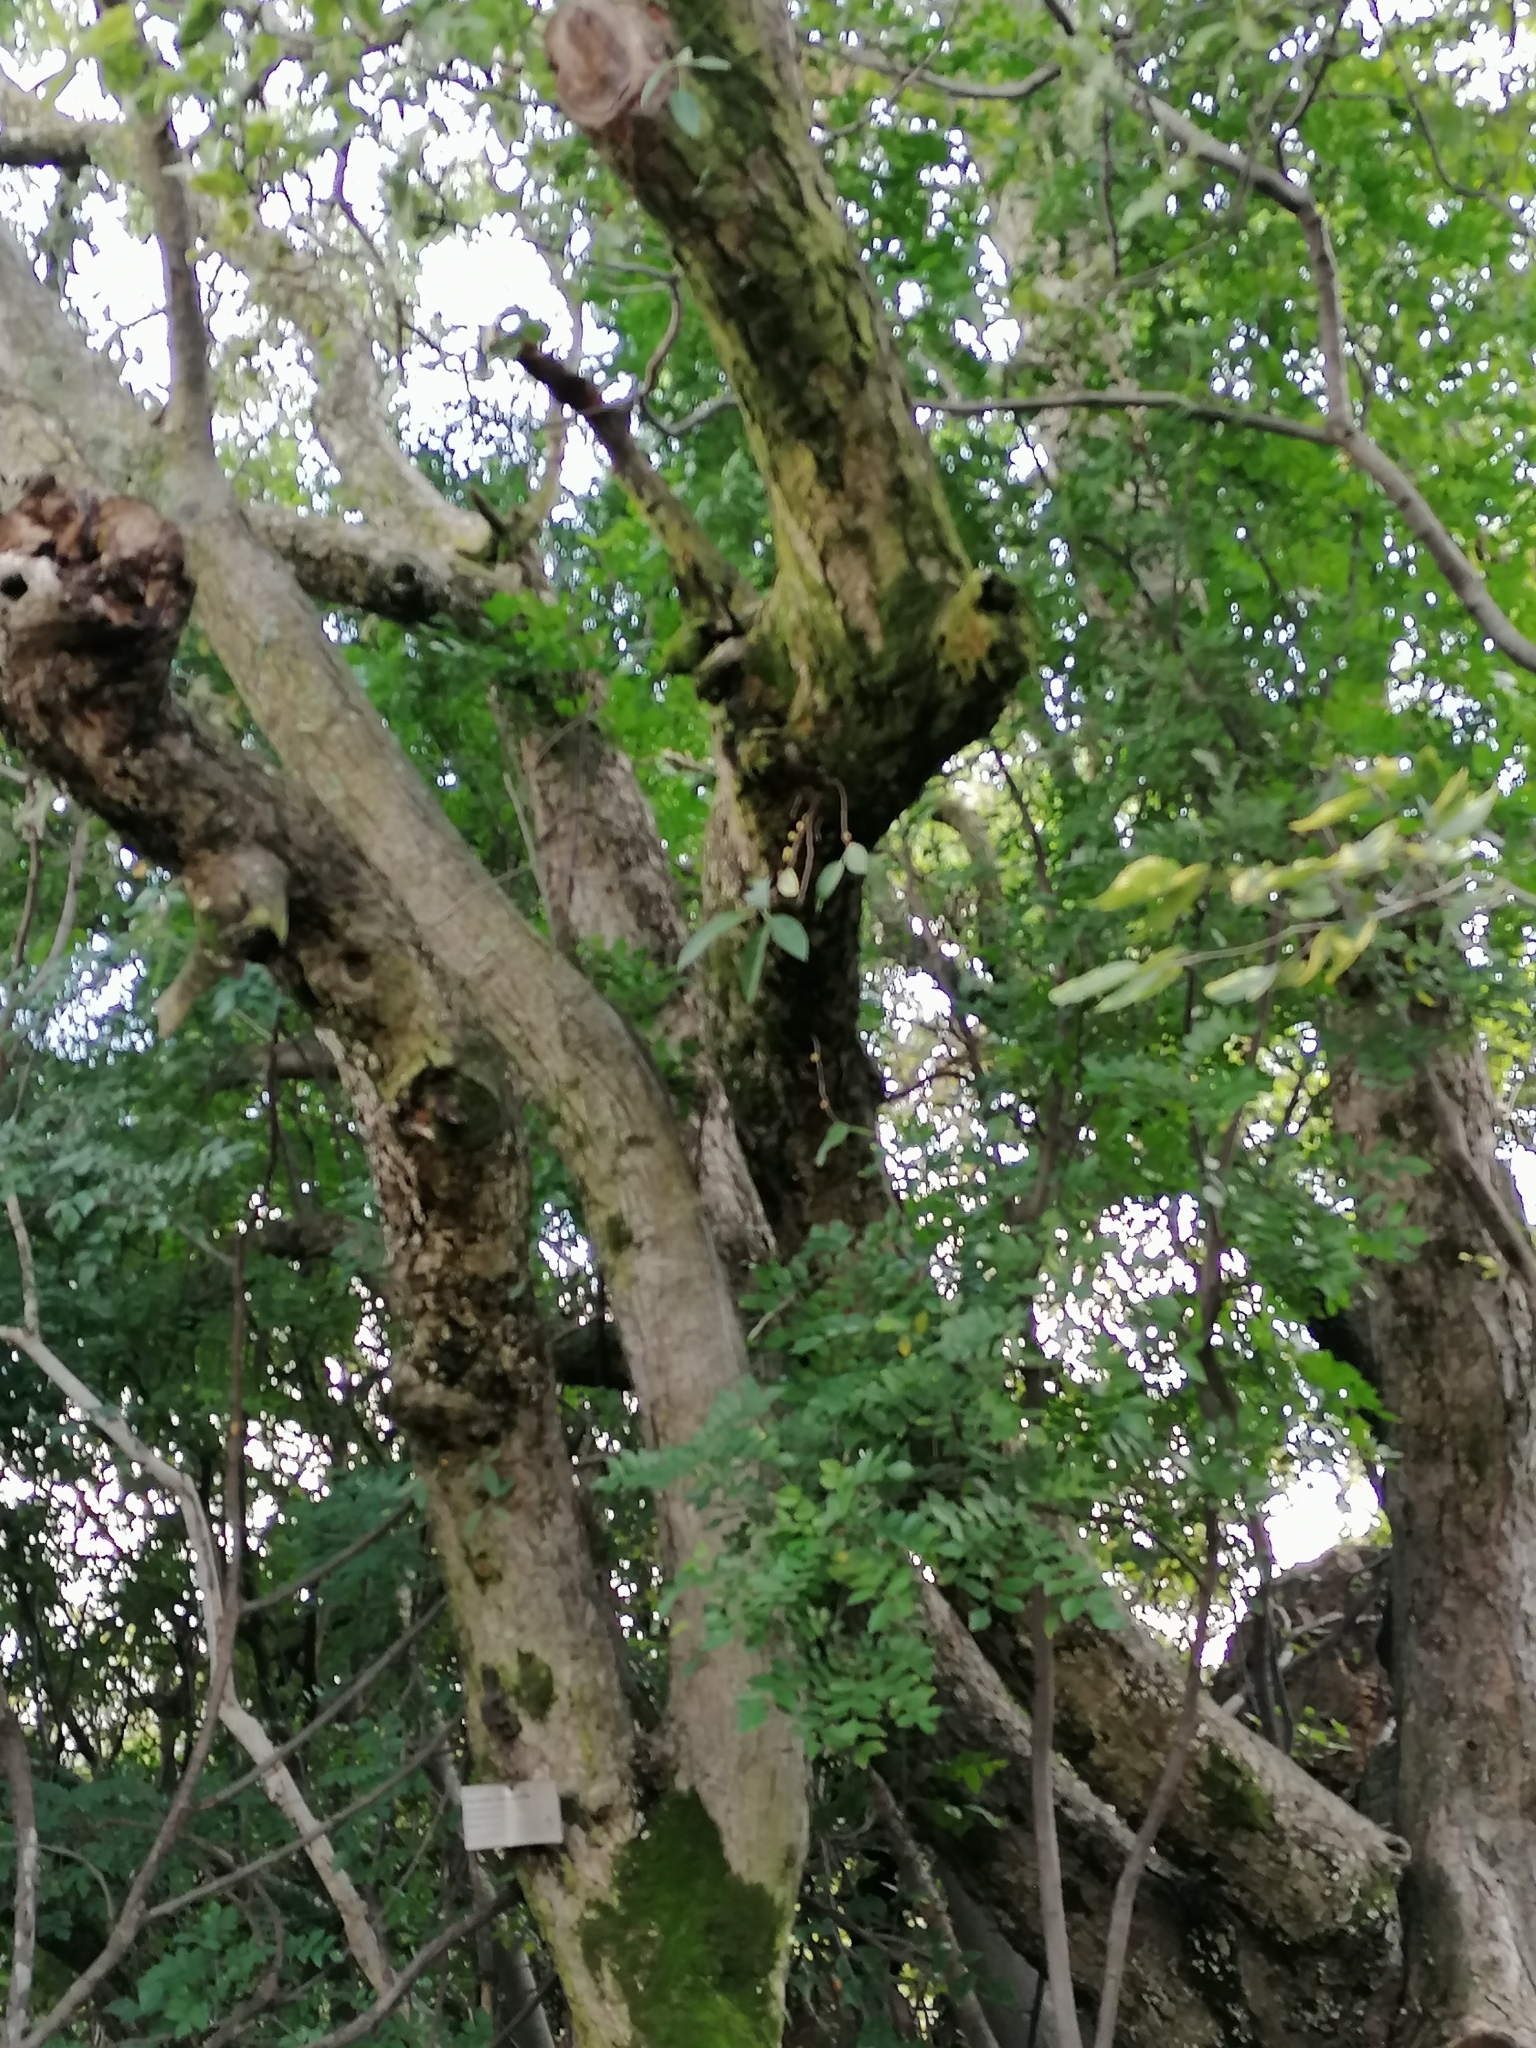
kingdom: Plantae
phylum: Tracheophyta
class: Magnoliopsida
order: Rosales
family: Moraceae
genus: Ficus
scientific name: Ficus salicifolia
